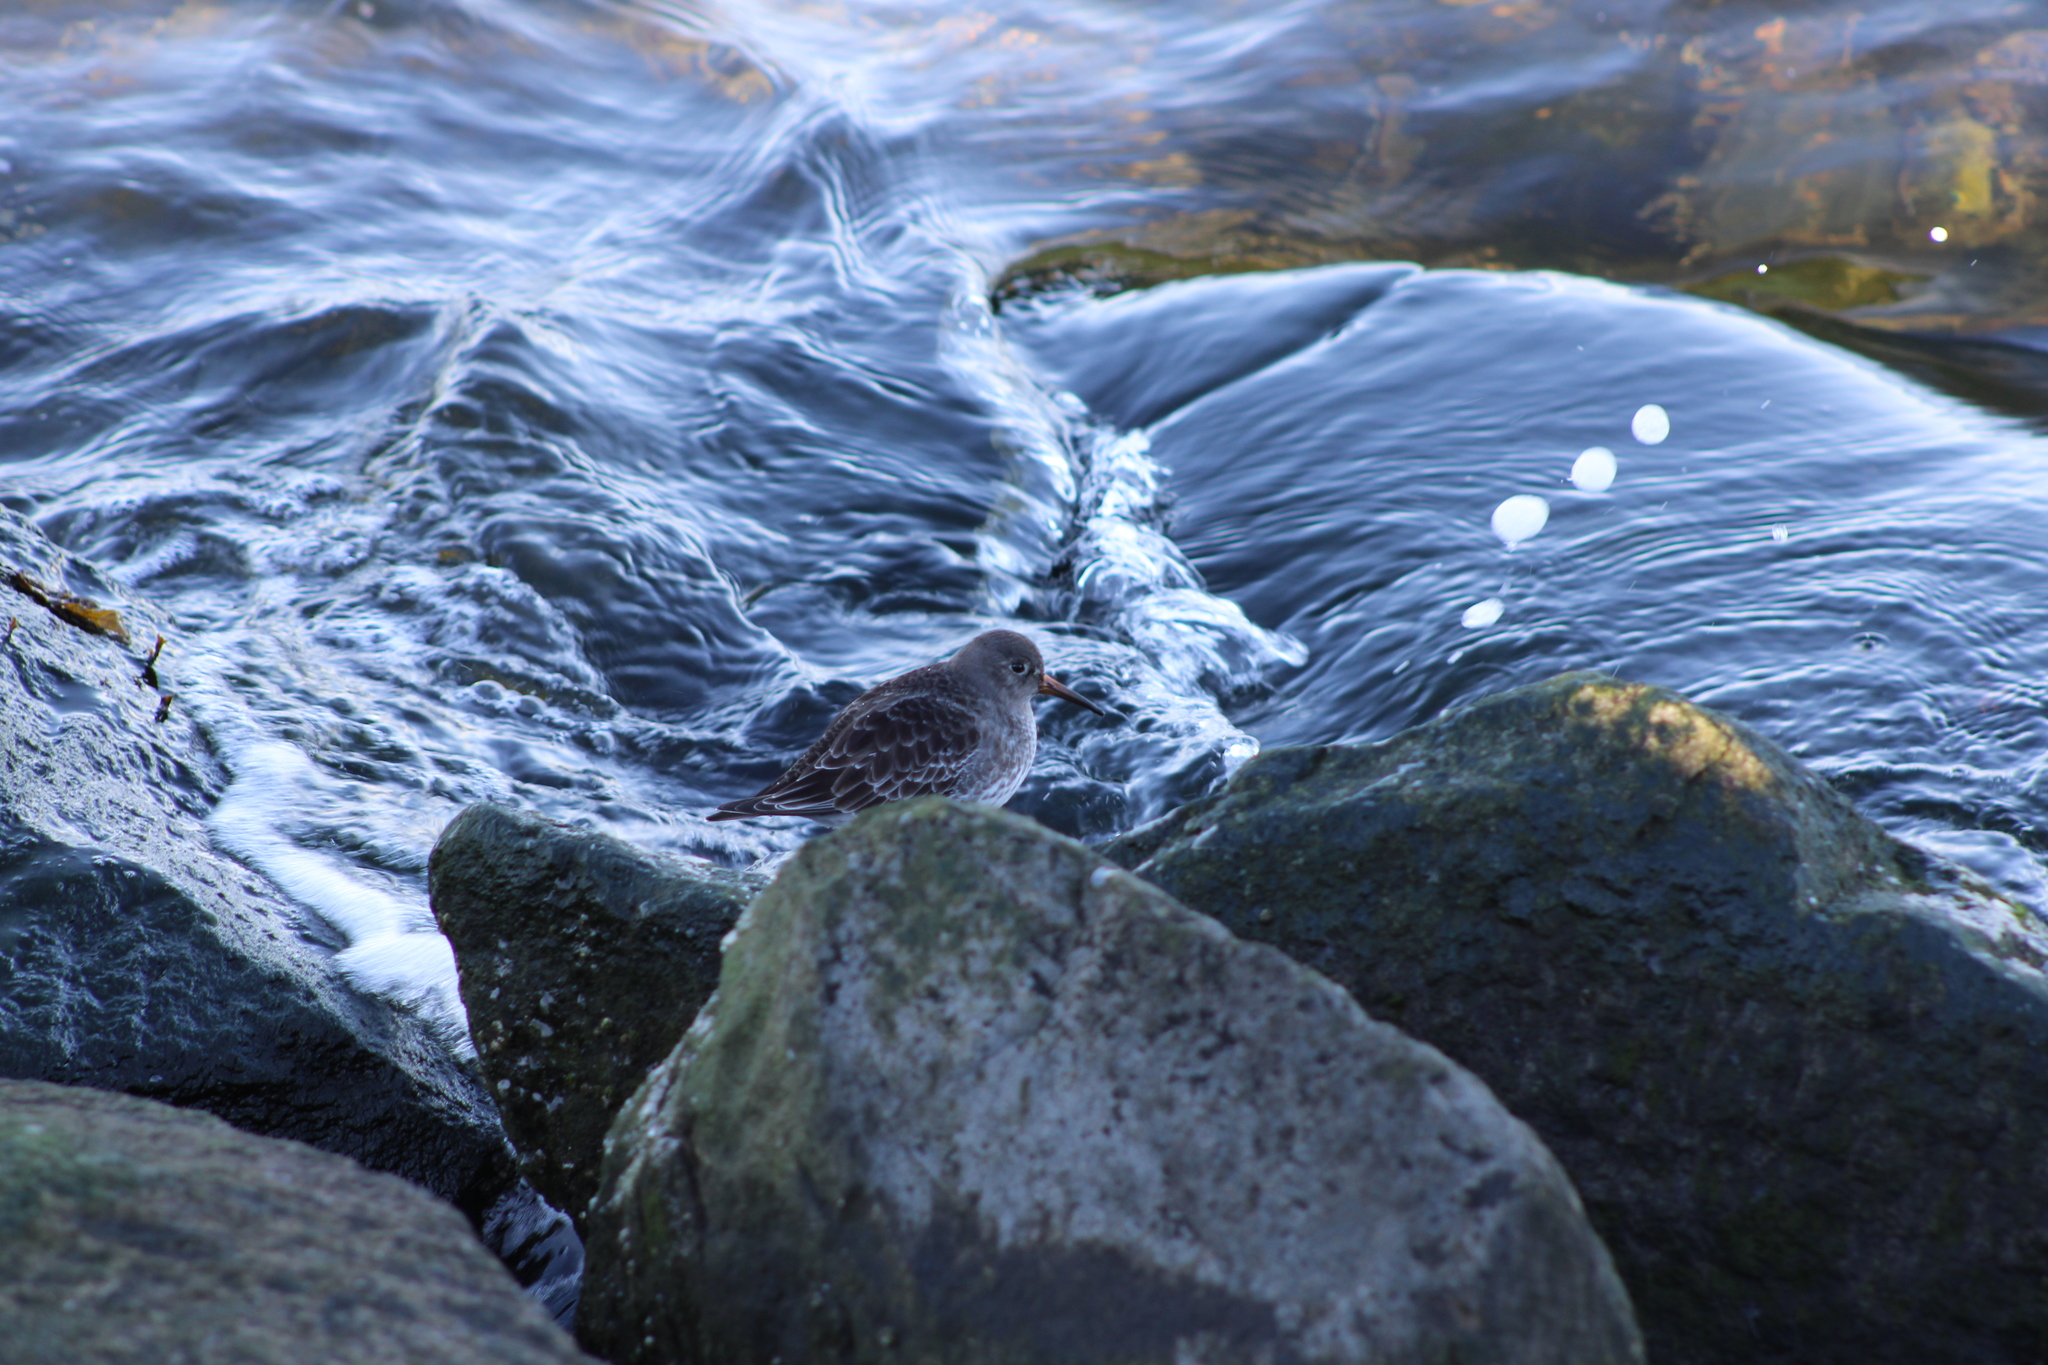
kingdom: Animalia
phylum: Chordata
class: Aves
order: Charadriiformes
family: Scolopacidae
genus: Calidris
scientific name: Calidris maritima
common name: Purple sandpiper
